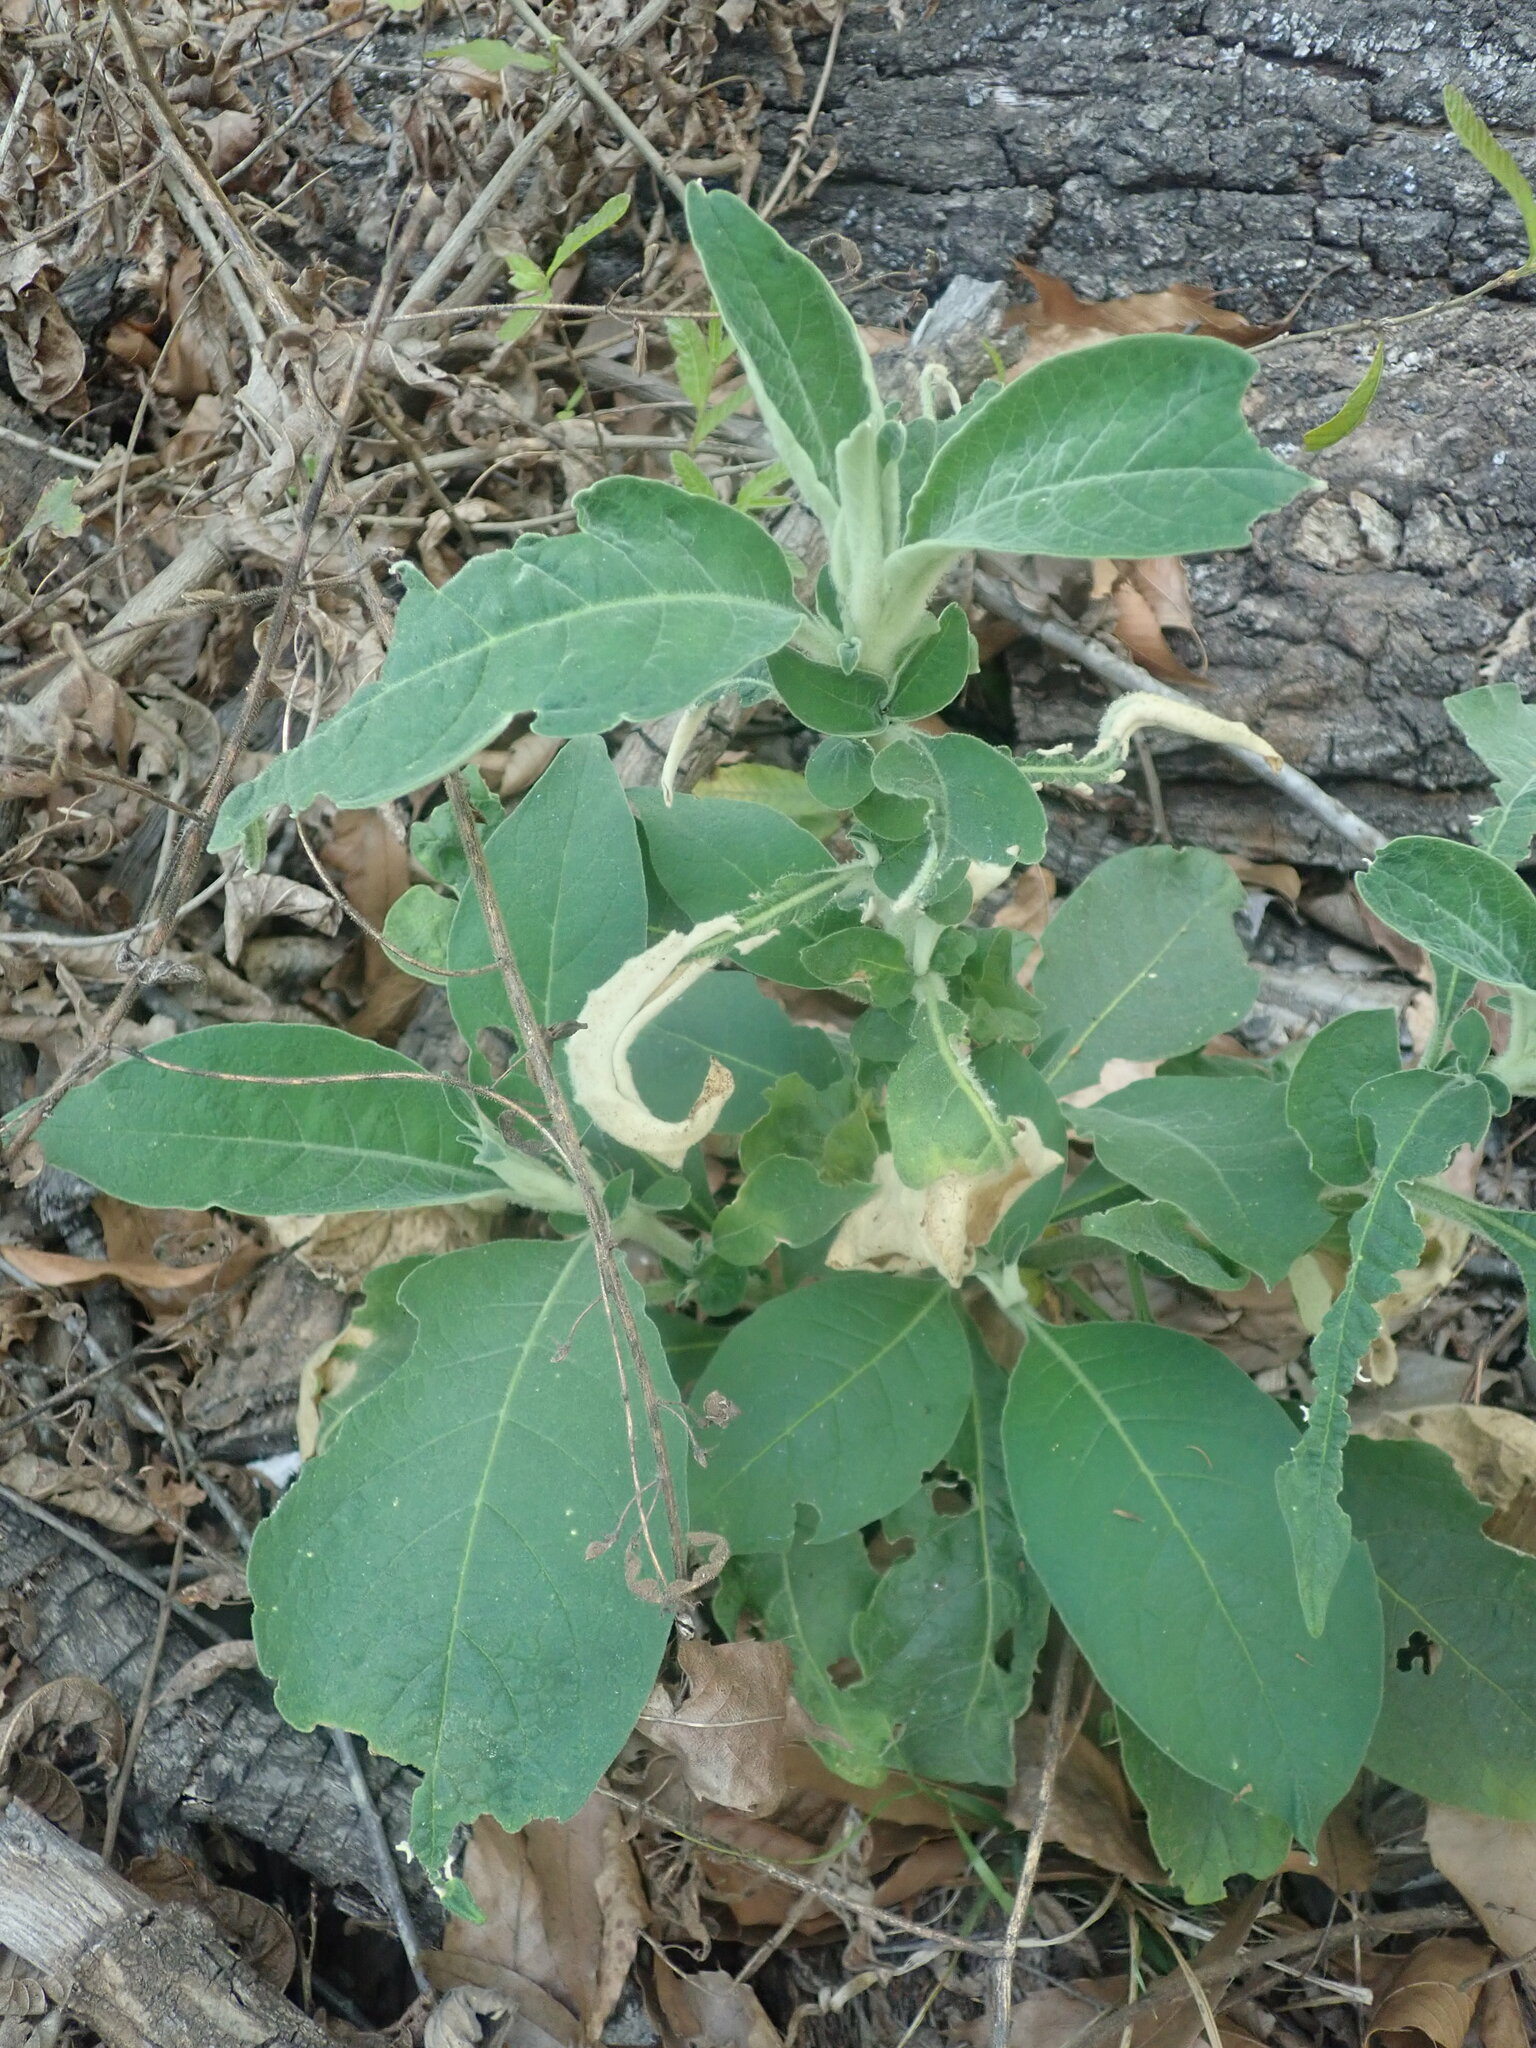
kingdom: Plantae
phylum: Tracheophyta
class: Magnoliopsida
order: Solanales
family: Solanaceae
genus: Solanum
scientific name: Solanum mauritianum
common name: Earleaf nightshade
